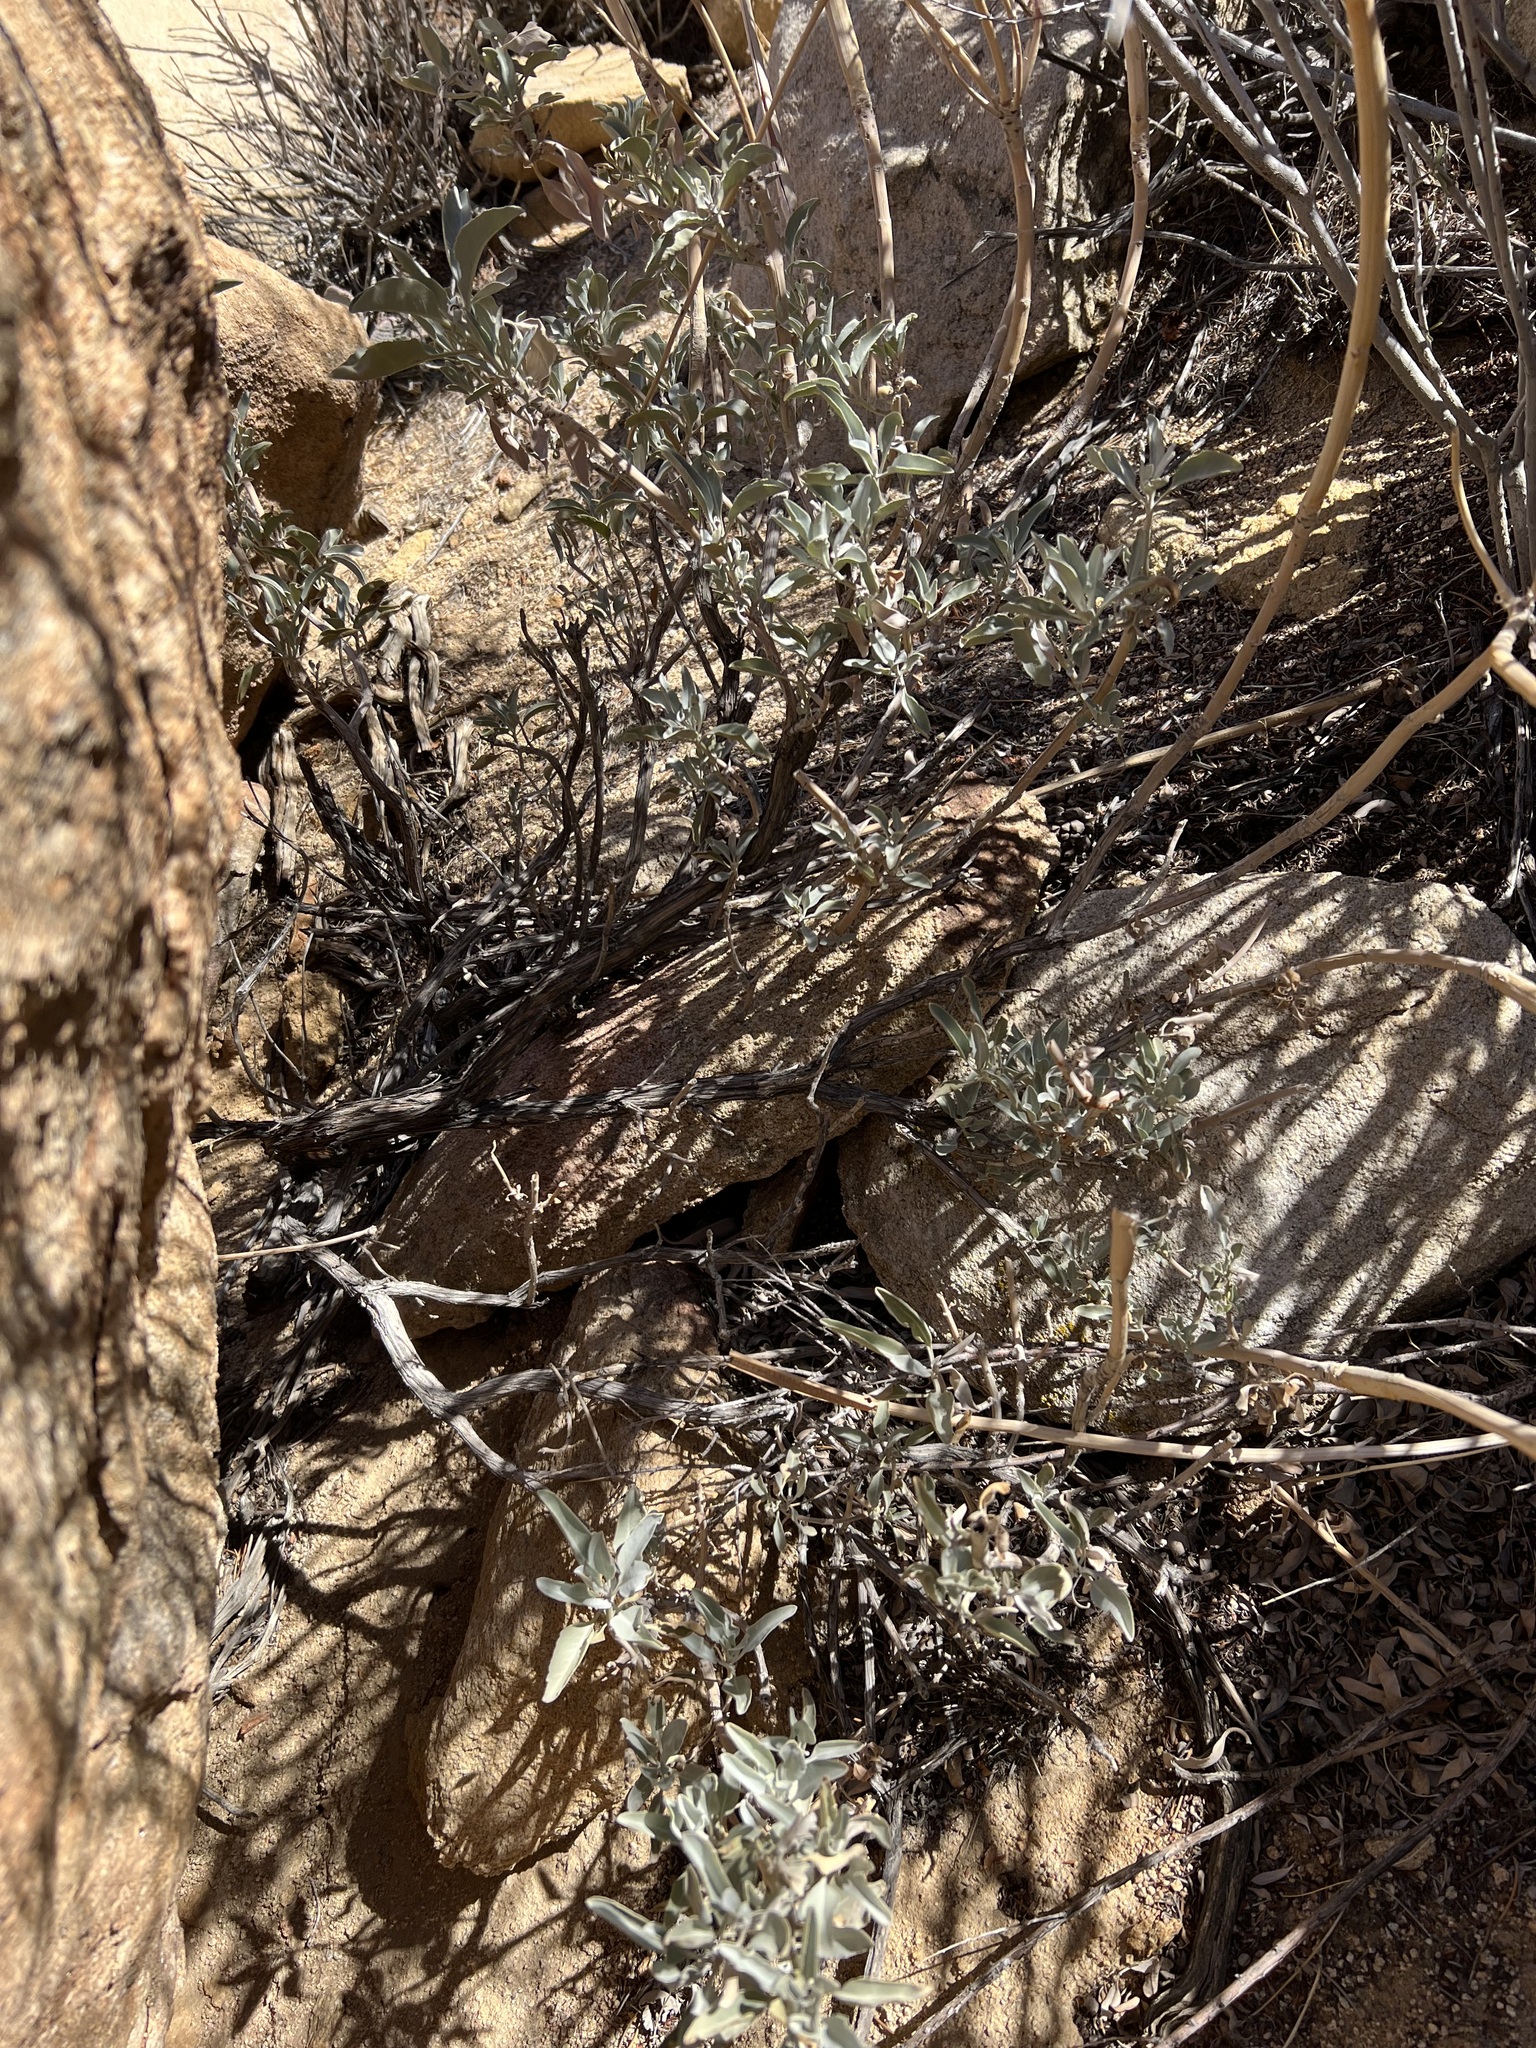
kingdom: Plantae
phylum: Tracheophyta
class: Magnoliopsida
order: Lamiales
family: Lamiaceae
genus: Salvia
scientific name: Salvia apiana
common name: White sage
